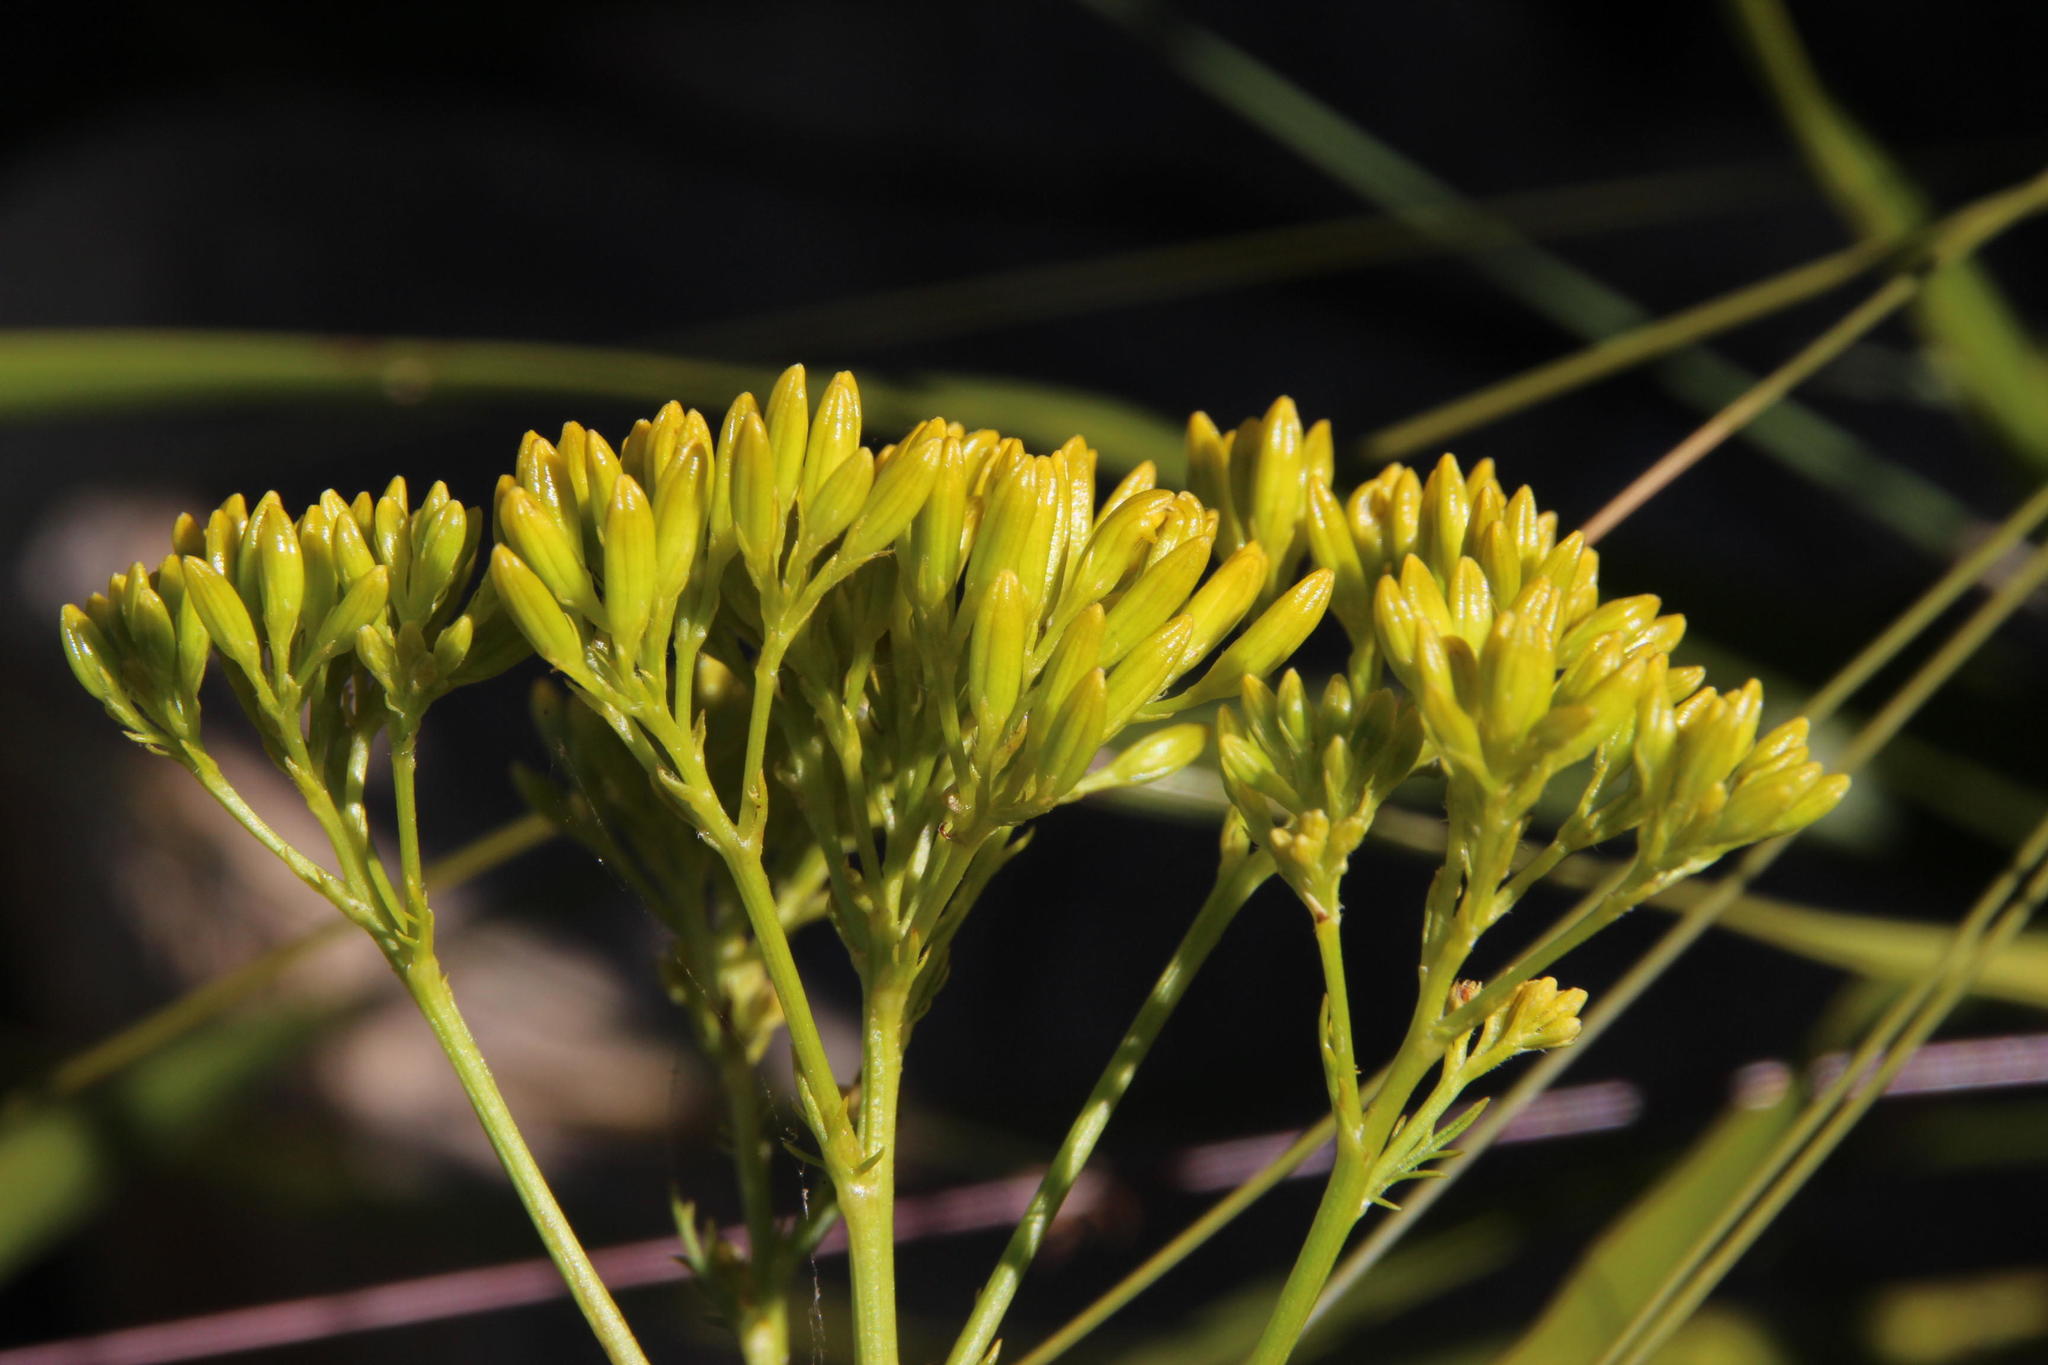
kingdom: Plantae
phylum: Tracheophyta
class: Magnoliopsida
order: Asterales
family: Asteraceae
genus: Senecio
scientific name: Senecio pinnatifidus
